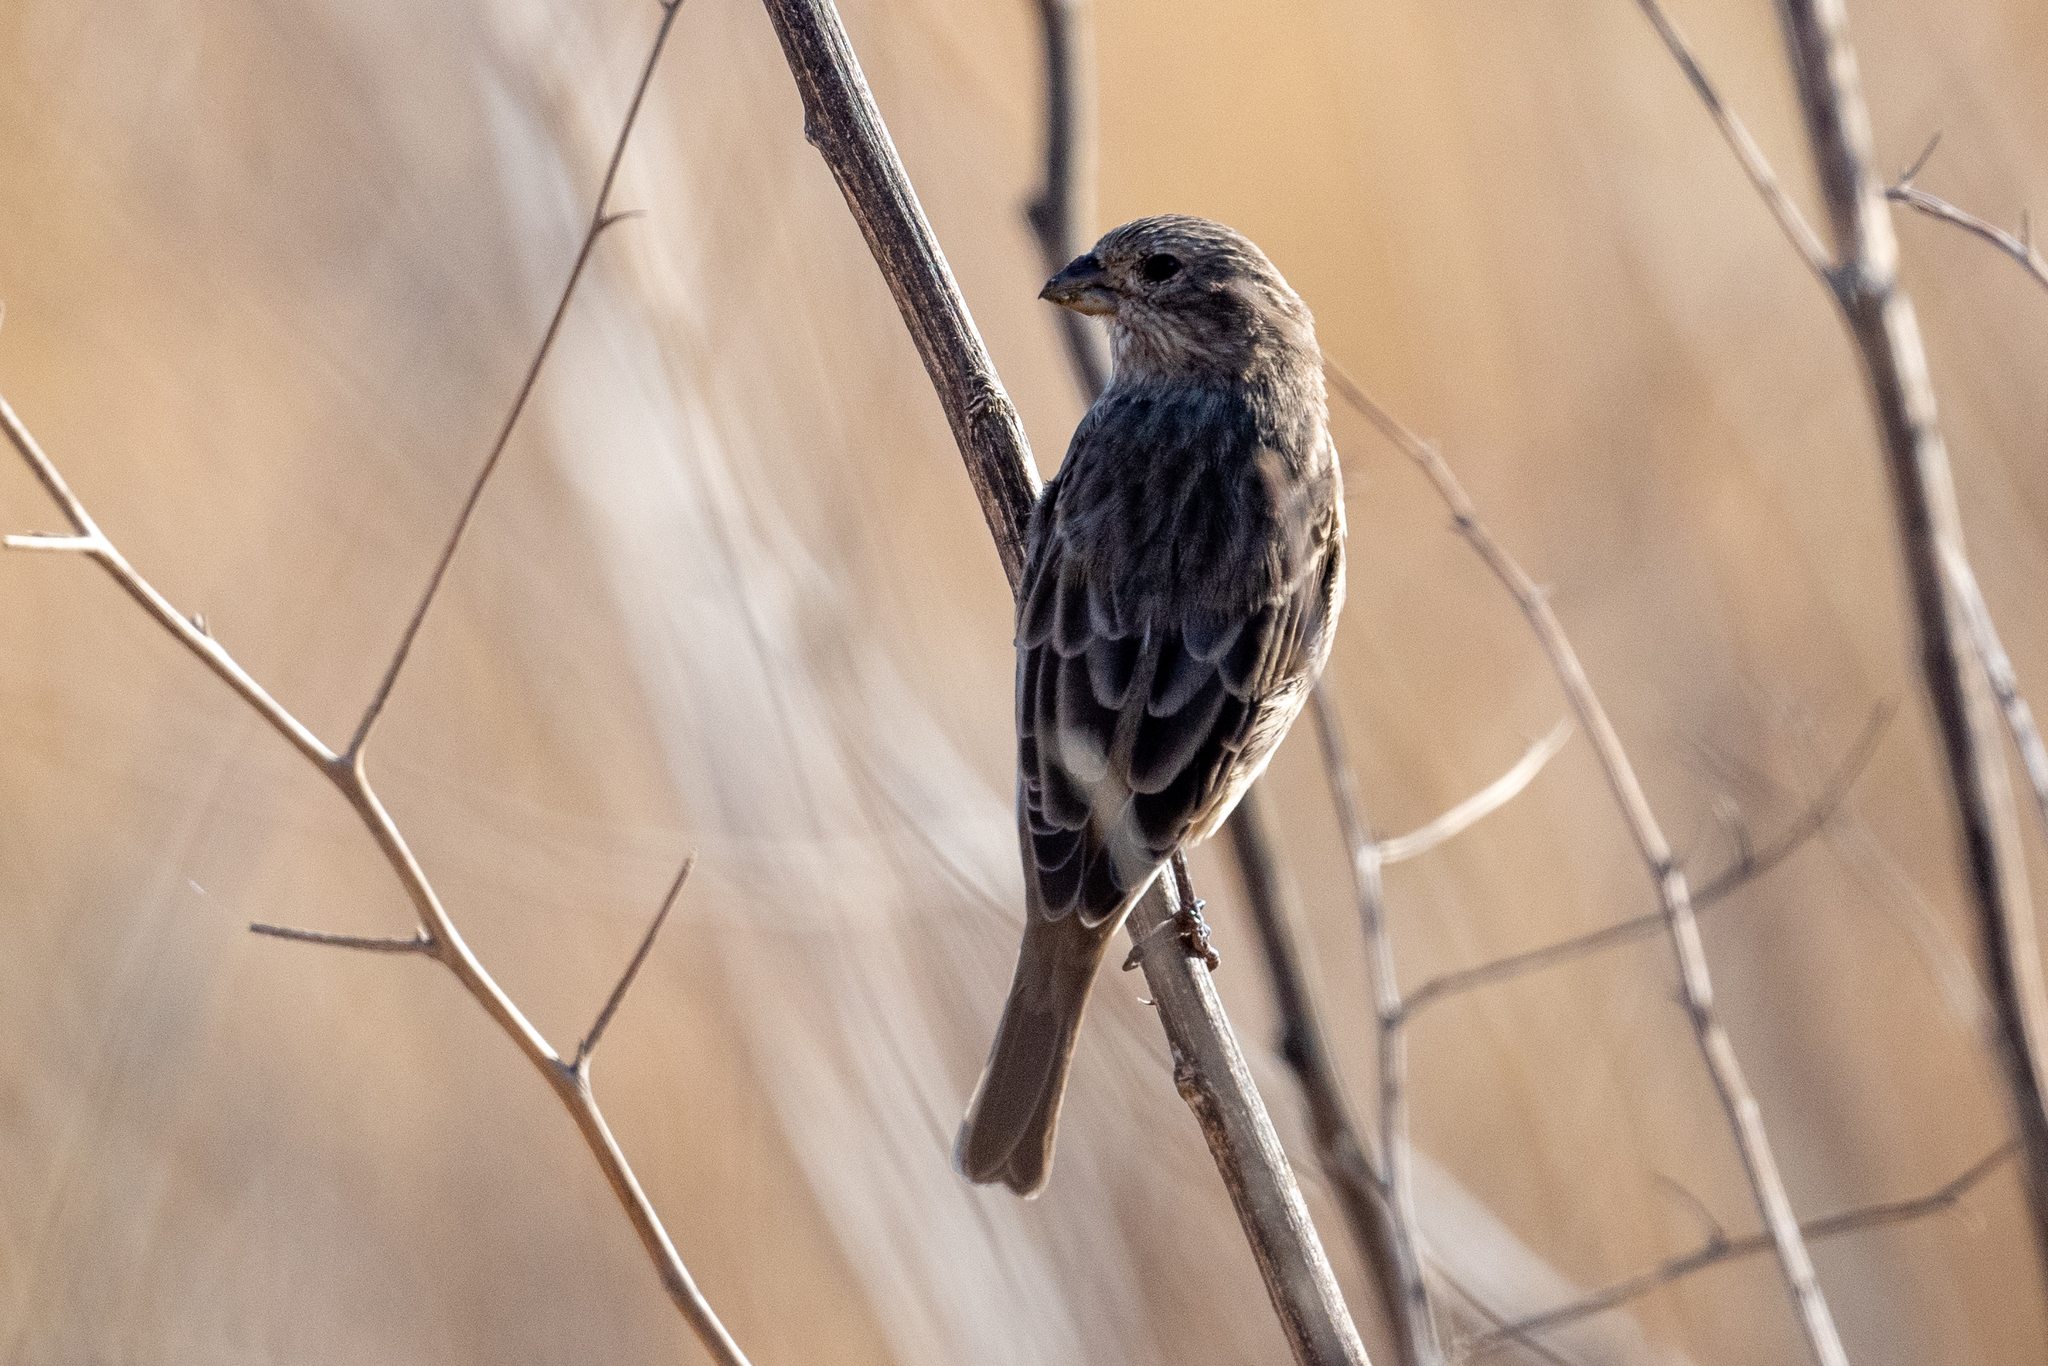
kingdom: Animalia
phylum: Chordata
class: Aves
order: Passeriformes
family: Fringillidae
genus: Haemorhous
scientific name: Haemorhous mexicanus
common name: House finch
